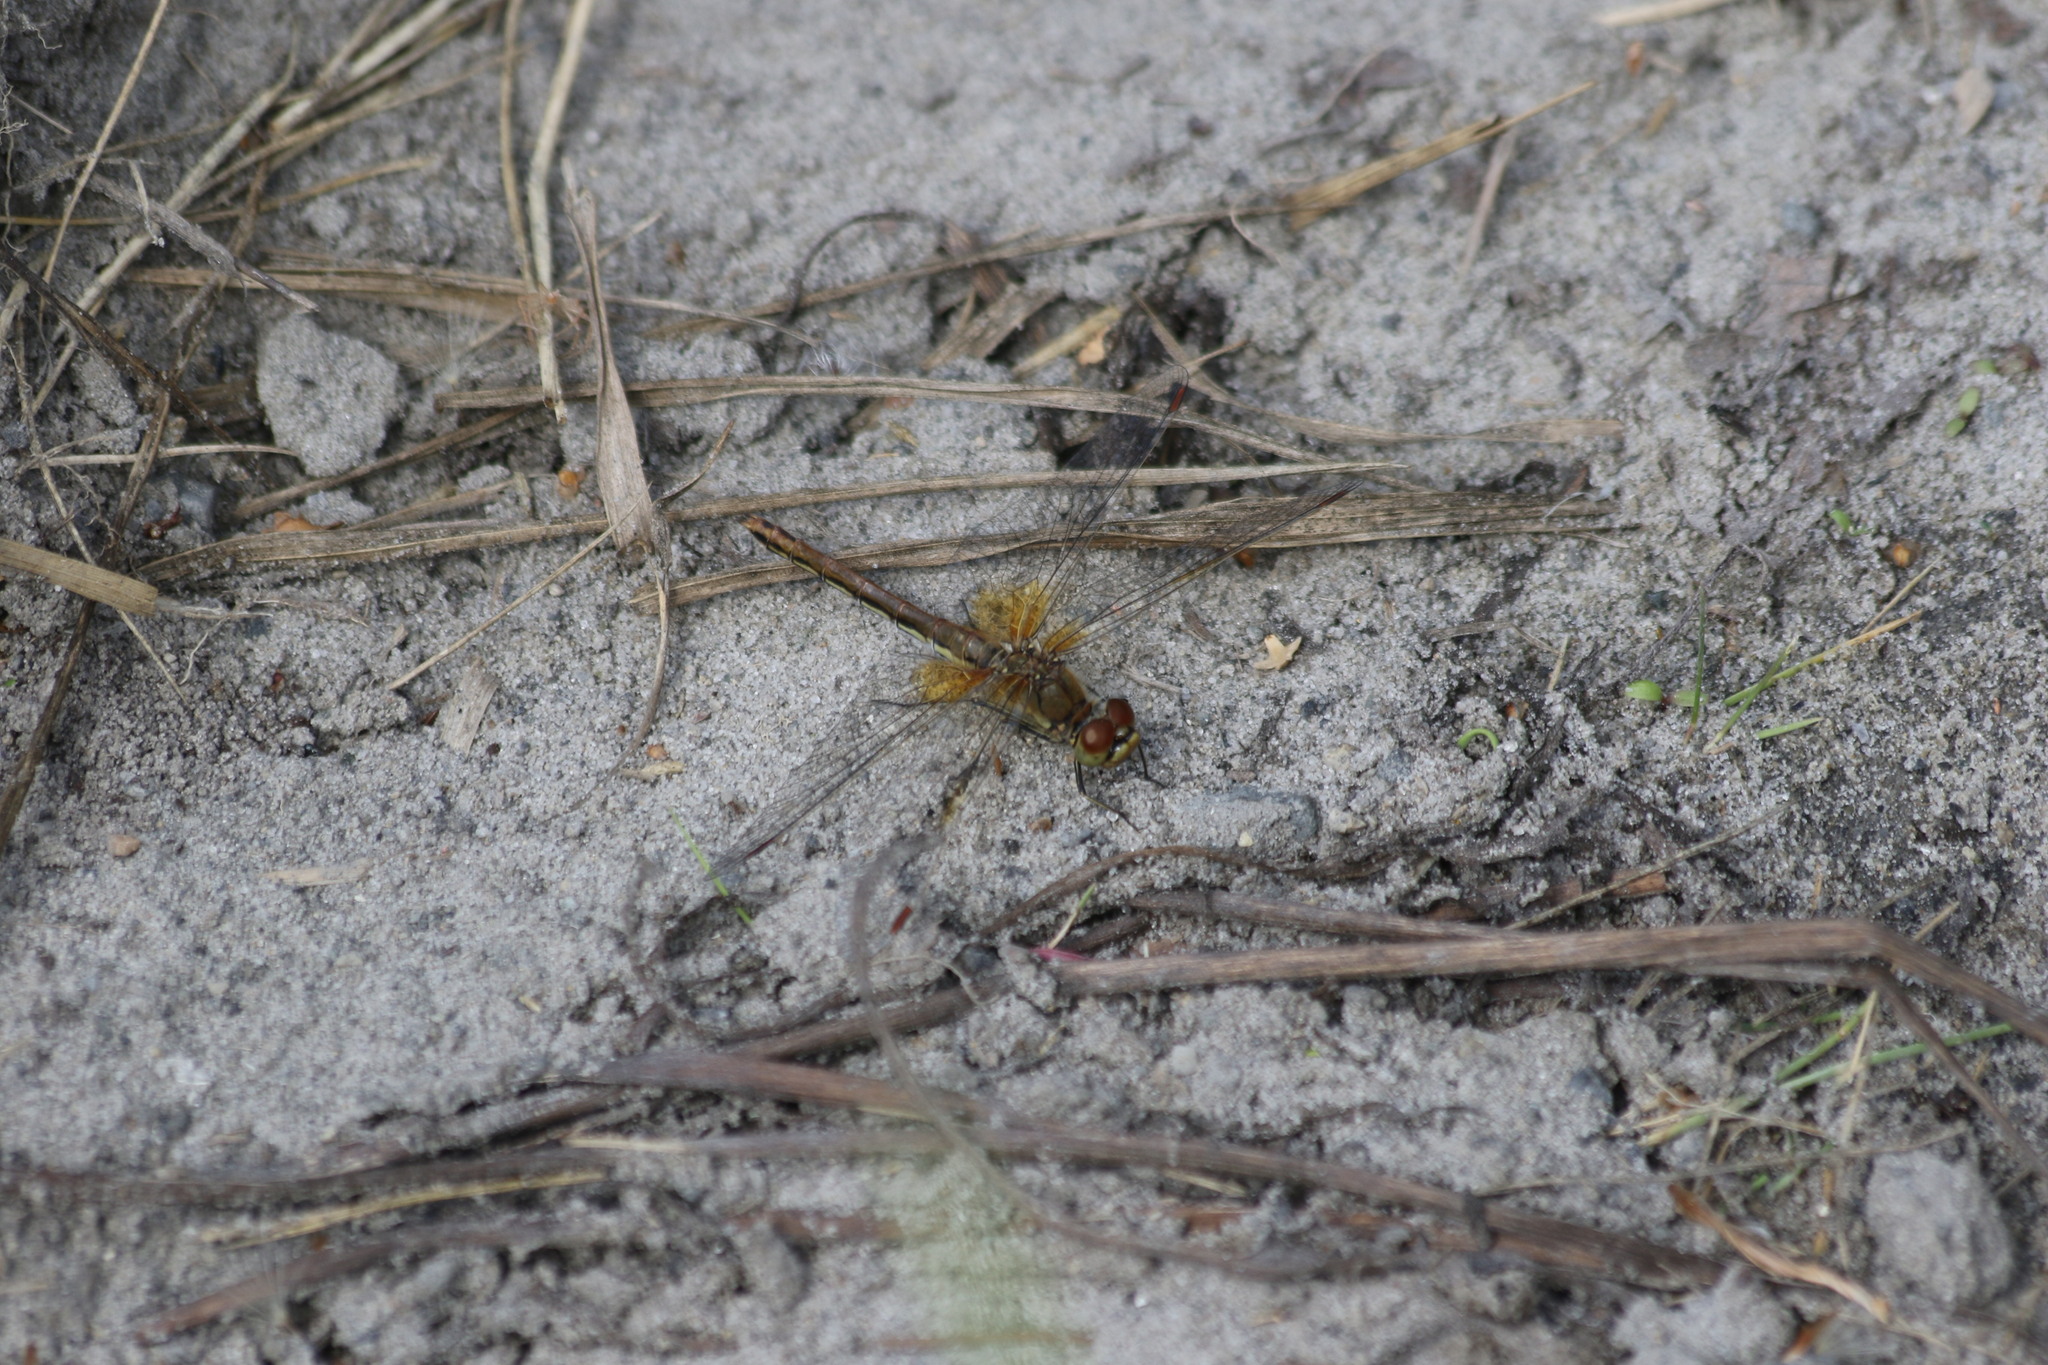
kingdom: Animalia
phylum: Arthropoda
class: Insecta
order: Odonata
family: Libellulidae
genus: Sympetrum
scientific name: Sympetrum flaveolum
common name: Yellow-winged darter
